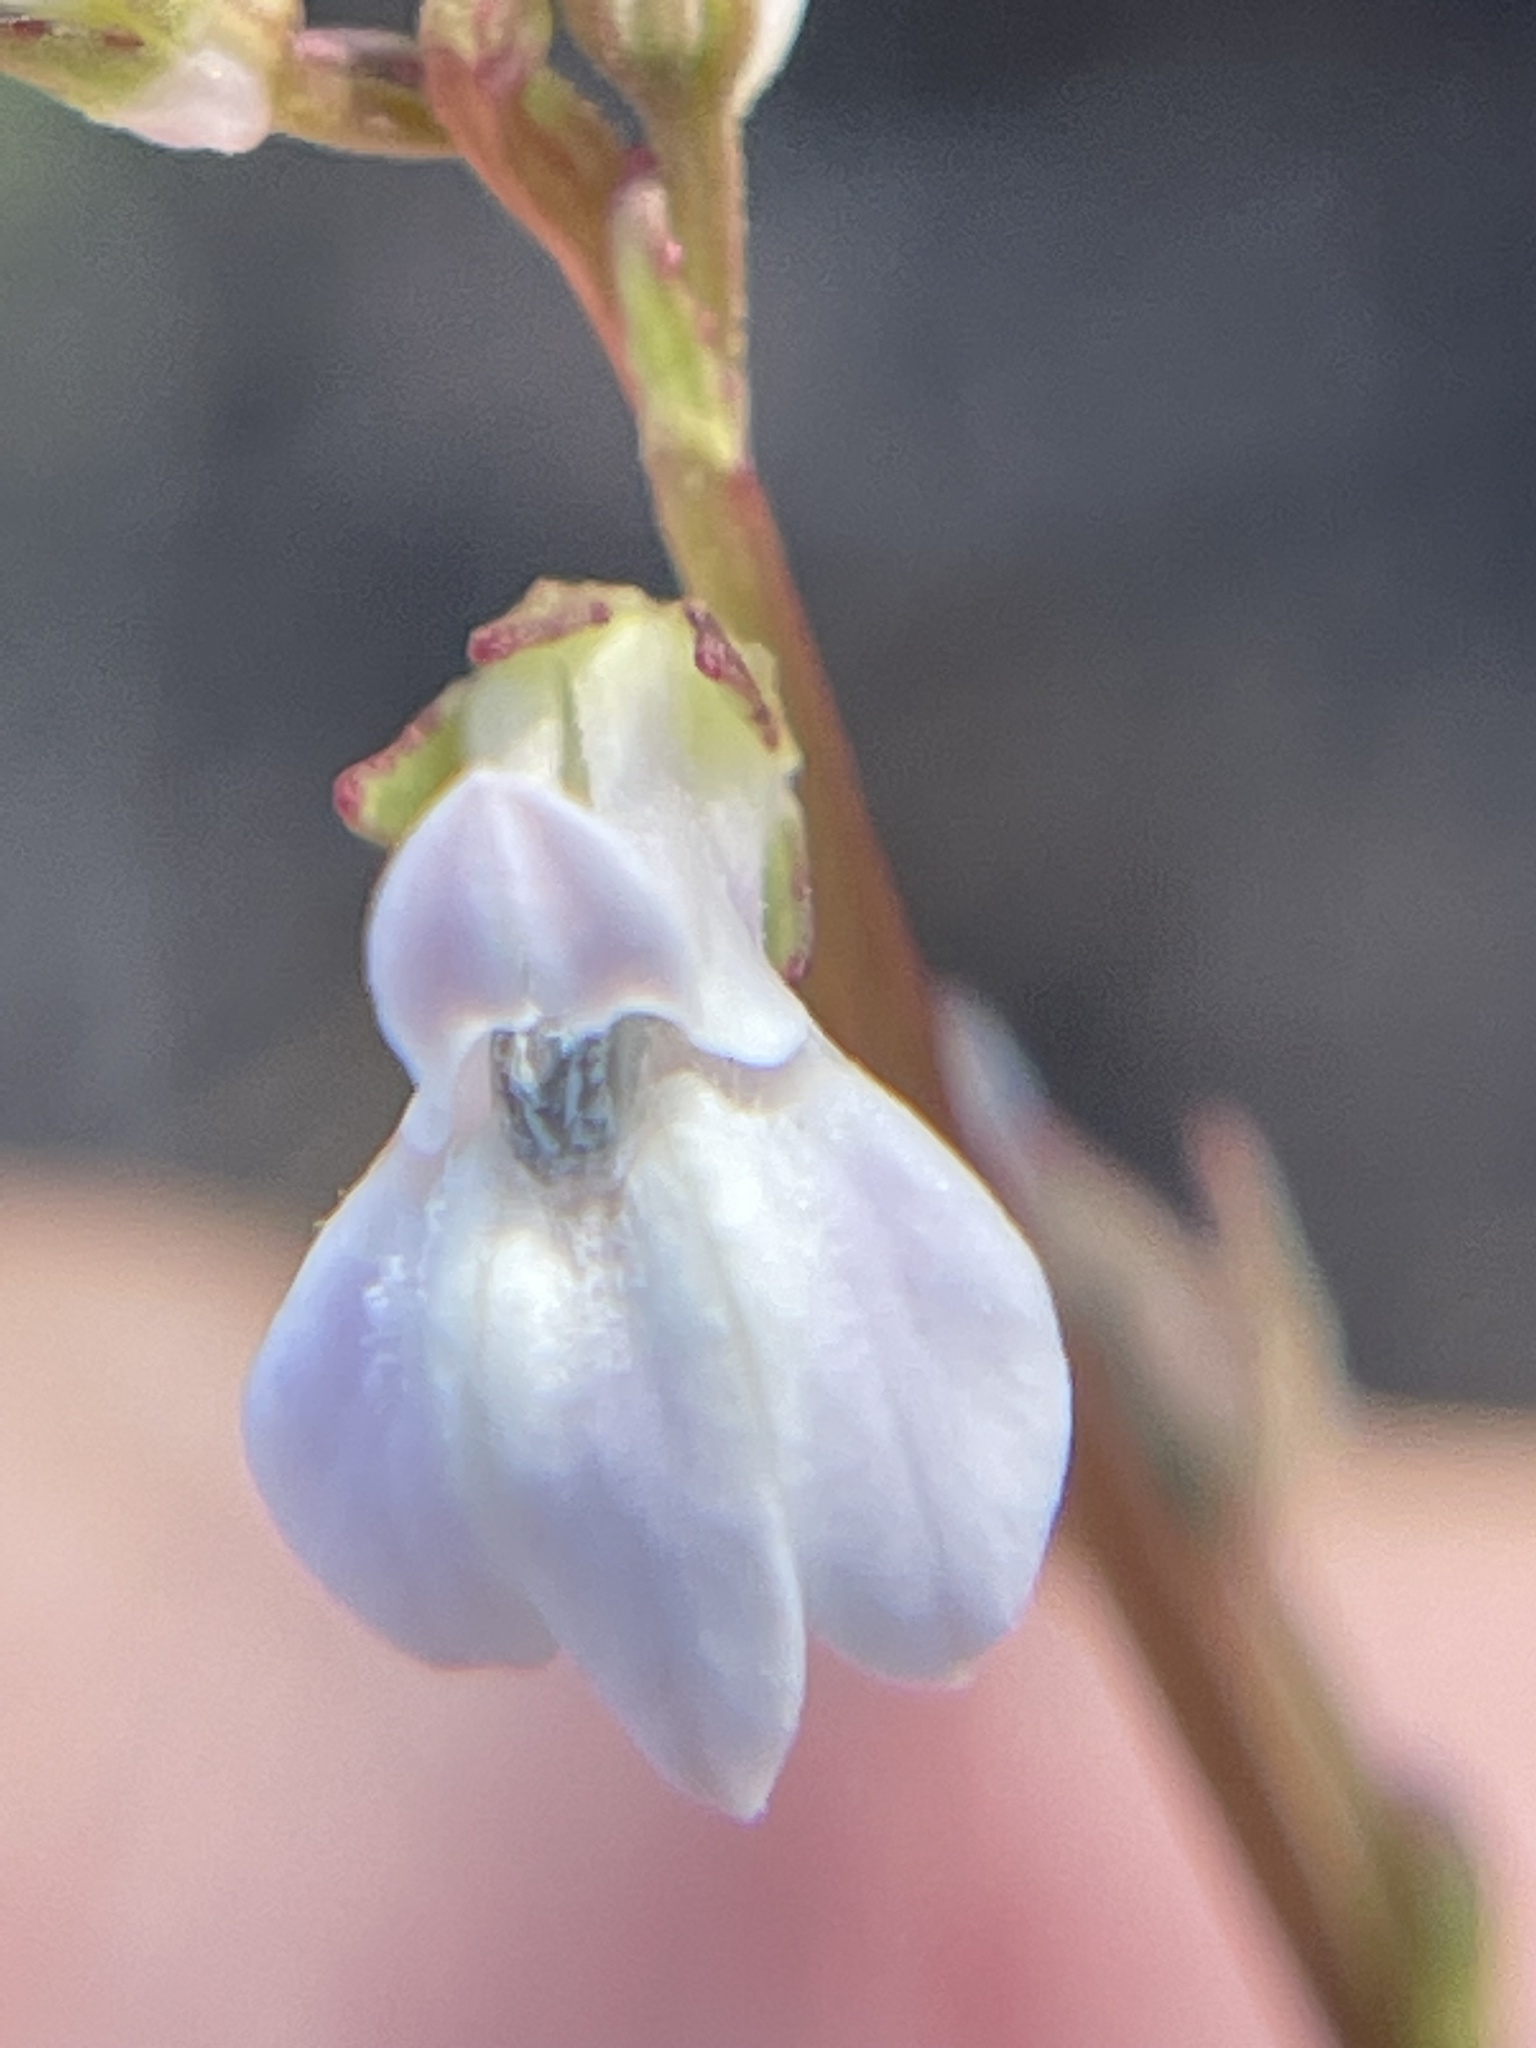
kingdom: Plantae
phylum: Tracheophyta
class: Magnoliopsida
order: Asterales
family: Campanulaceae
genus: Lobelia
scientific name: Lobelia paludosa
